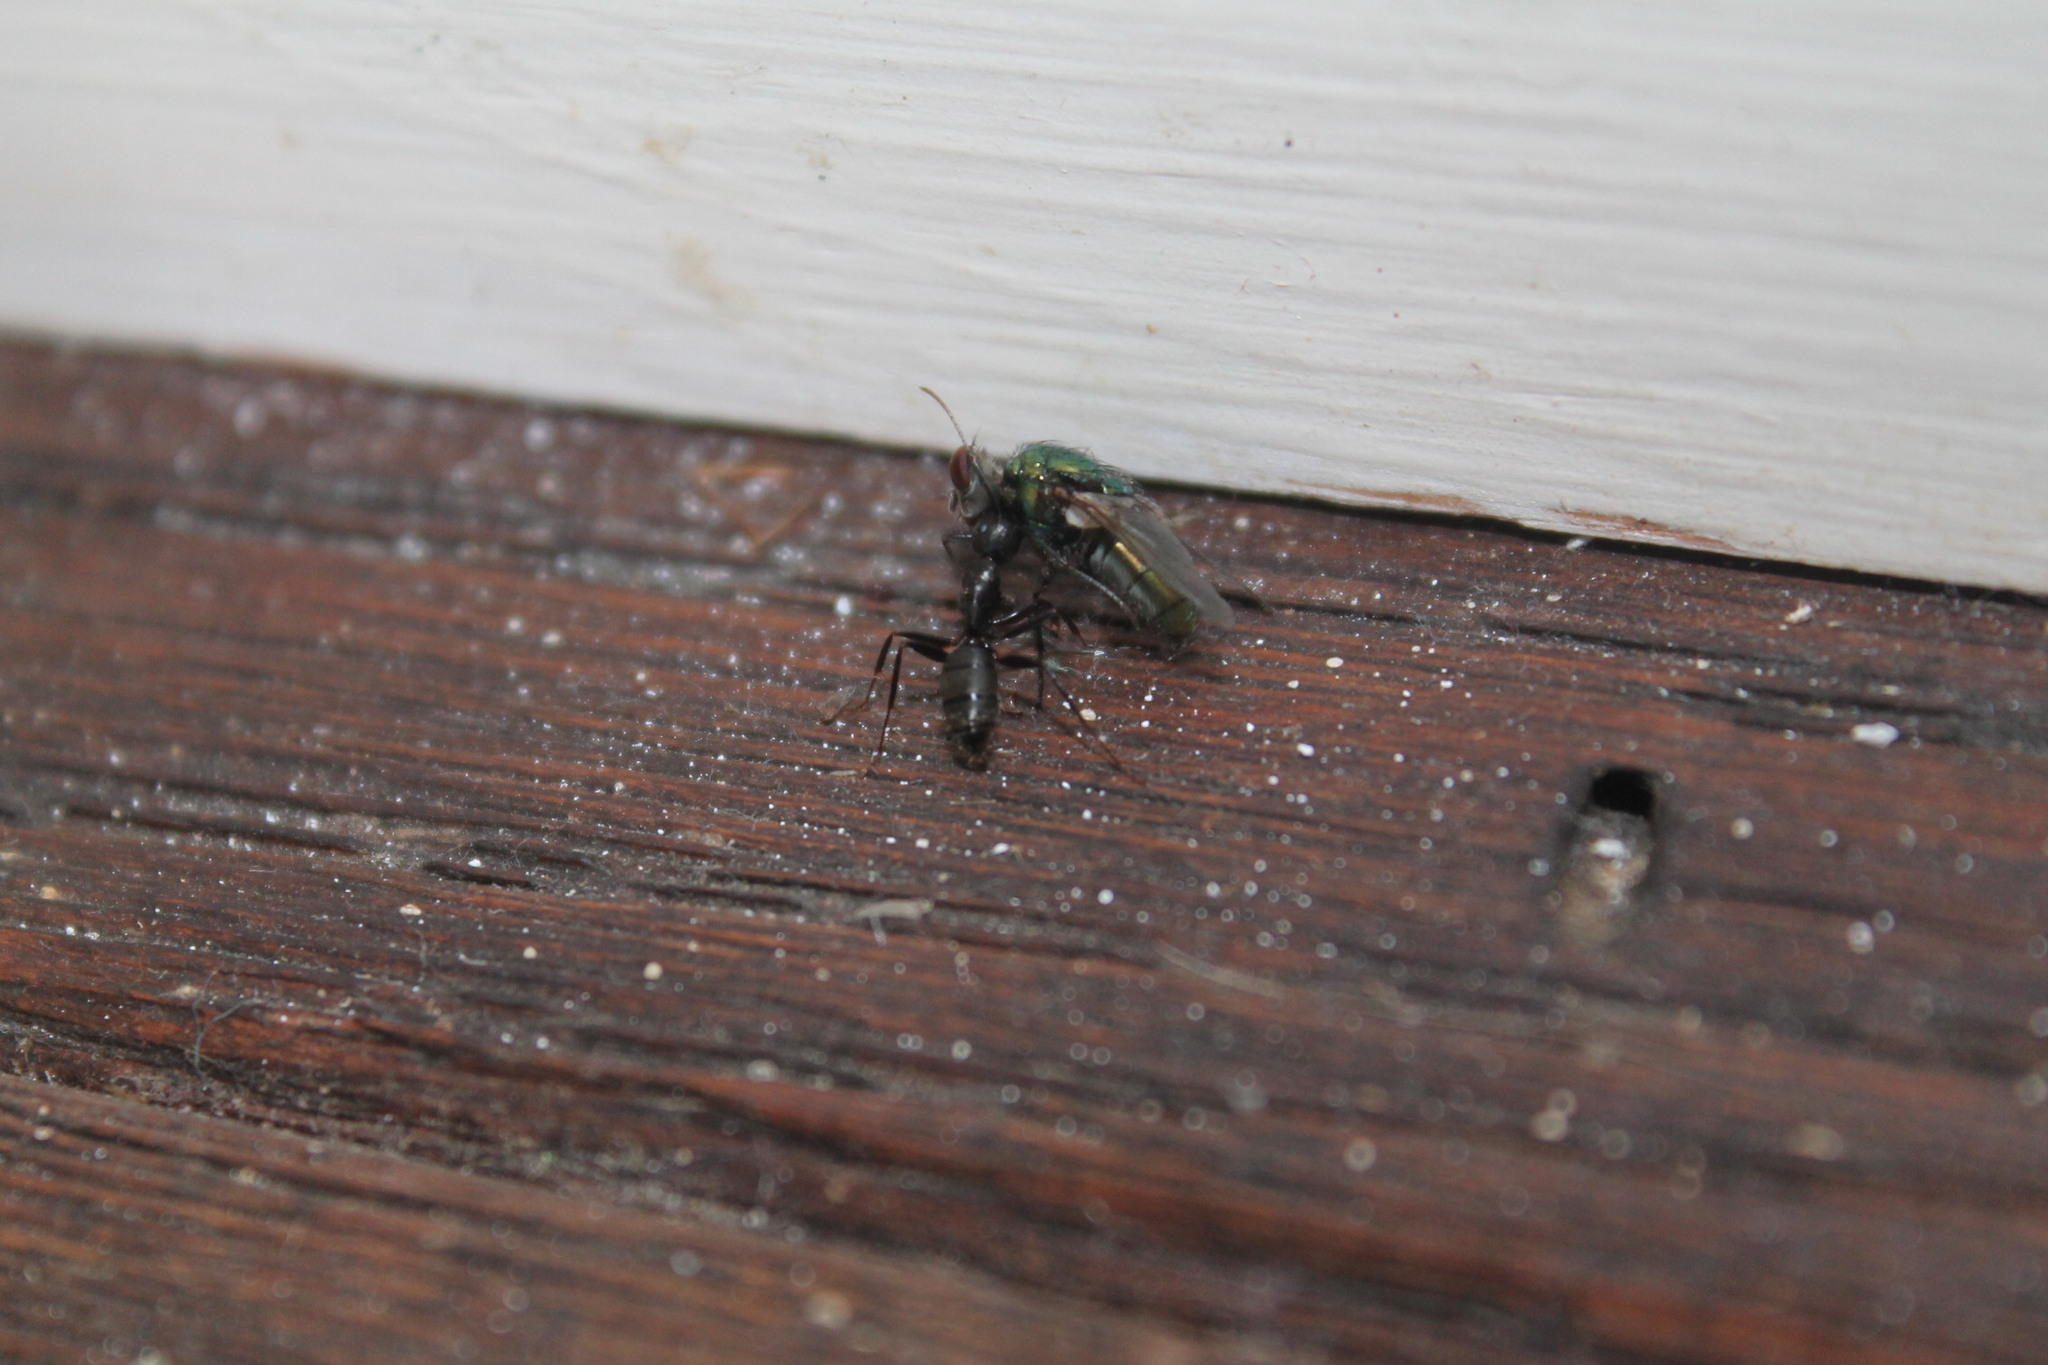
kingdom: Animalia
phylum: Arthropoda
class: Insecta
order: Hymenoptera
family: Formicidae
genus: Camponotus
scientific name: Camponotus pennsylvanicus
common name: Black carpenter ant
